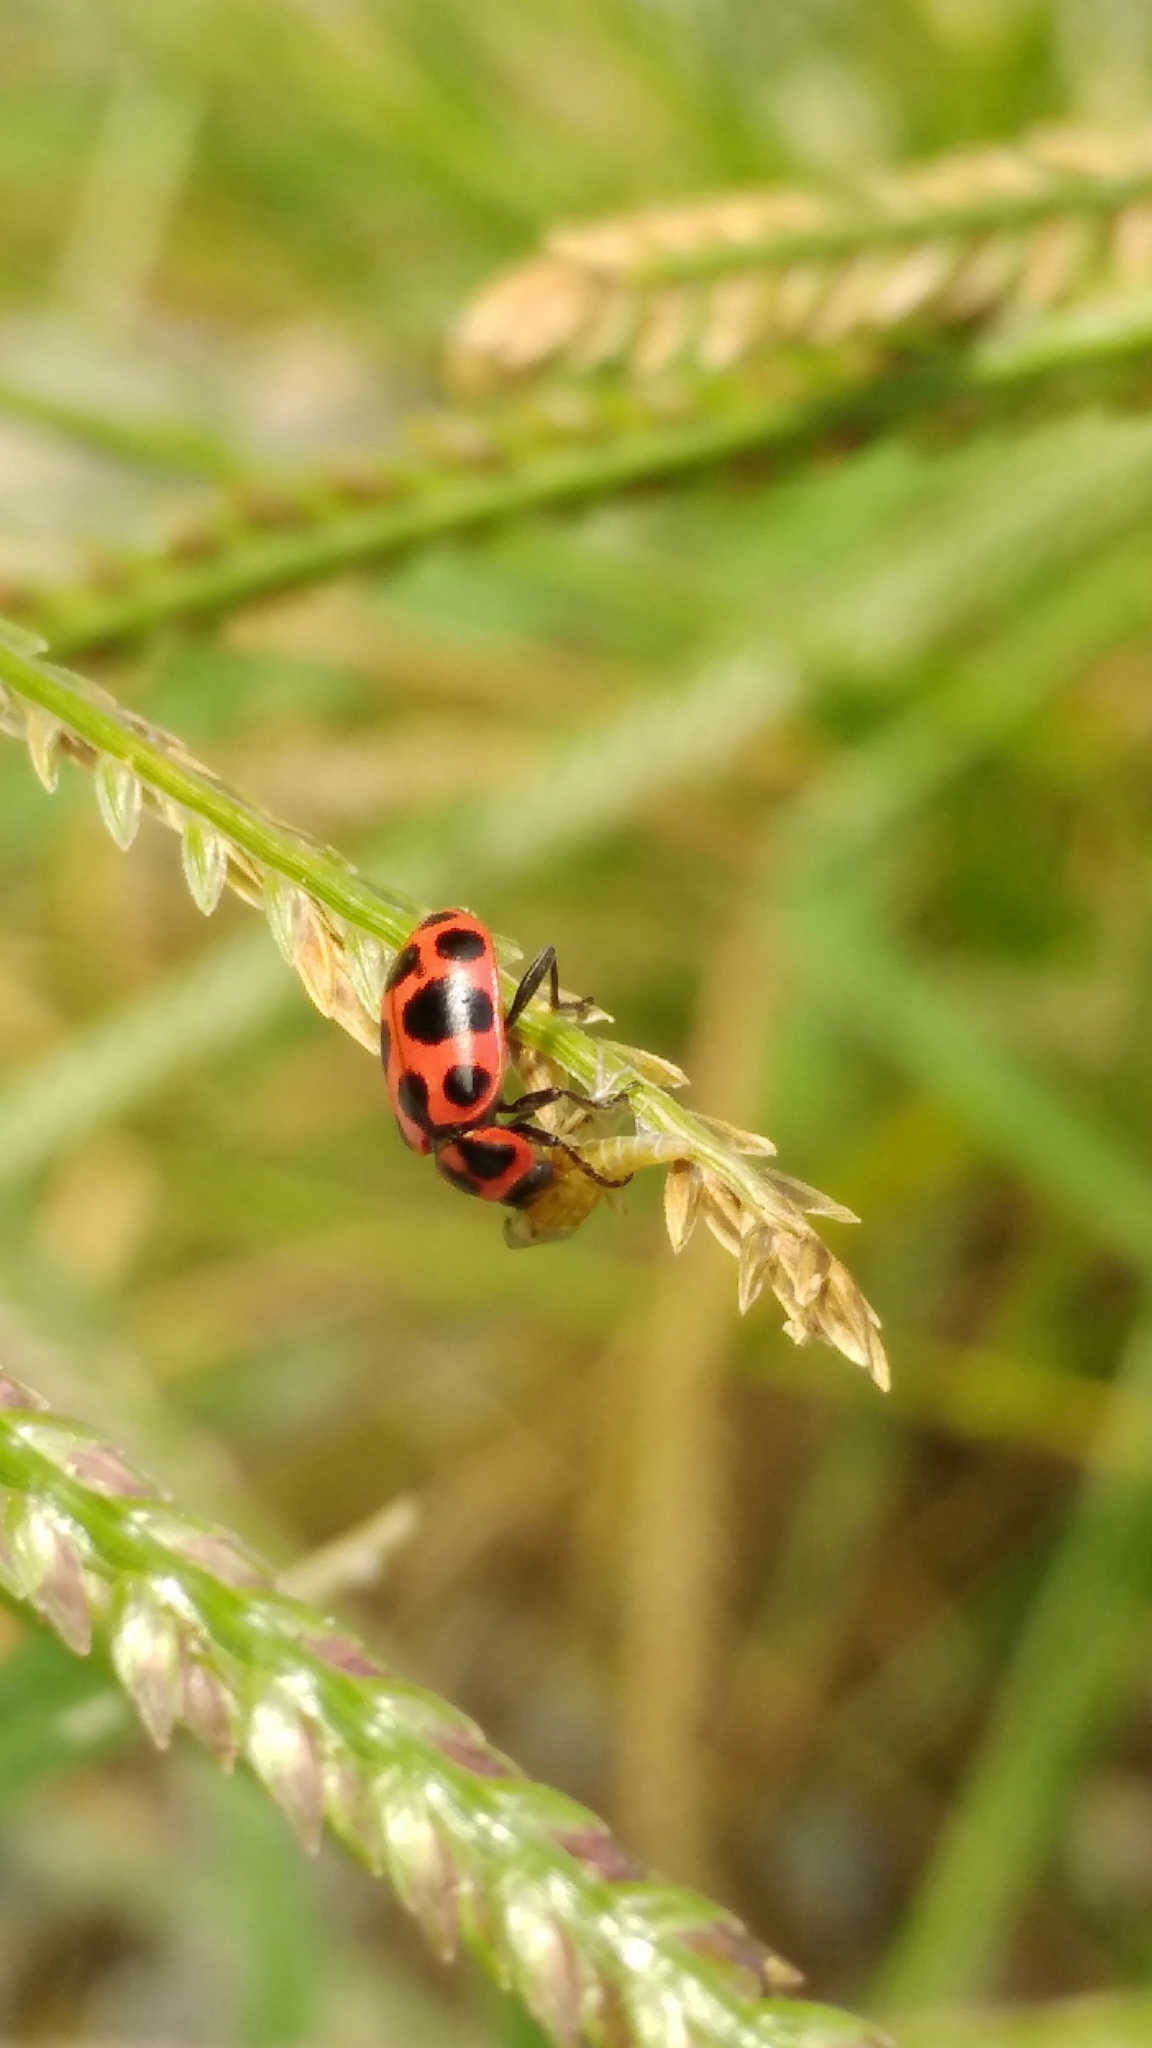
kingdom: Animalia
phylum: Arthropoda
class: Insecta
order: Coleoptera
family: Coccinellidae
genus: Coleomegilla
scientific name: Coleomegilla maculata
